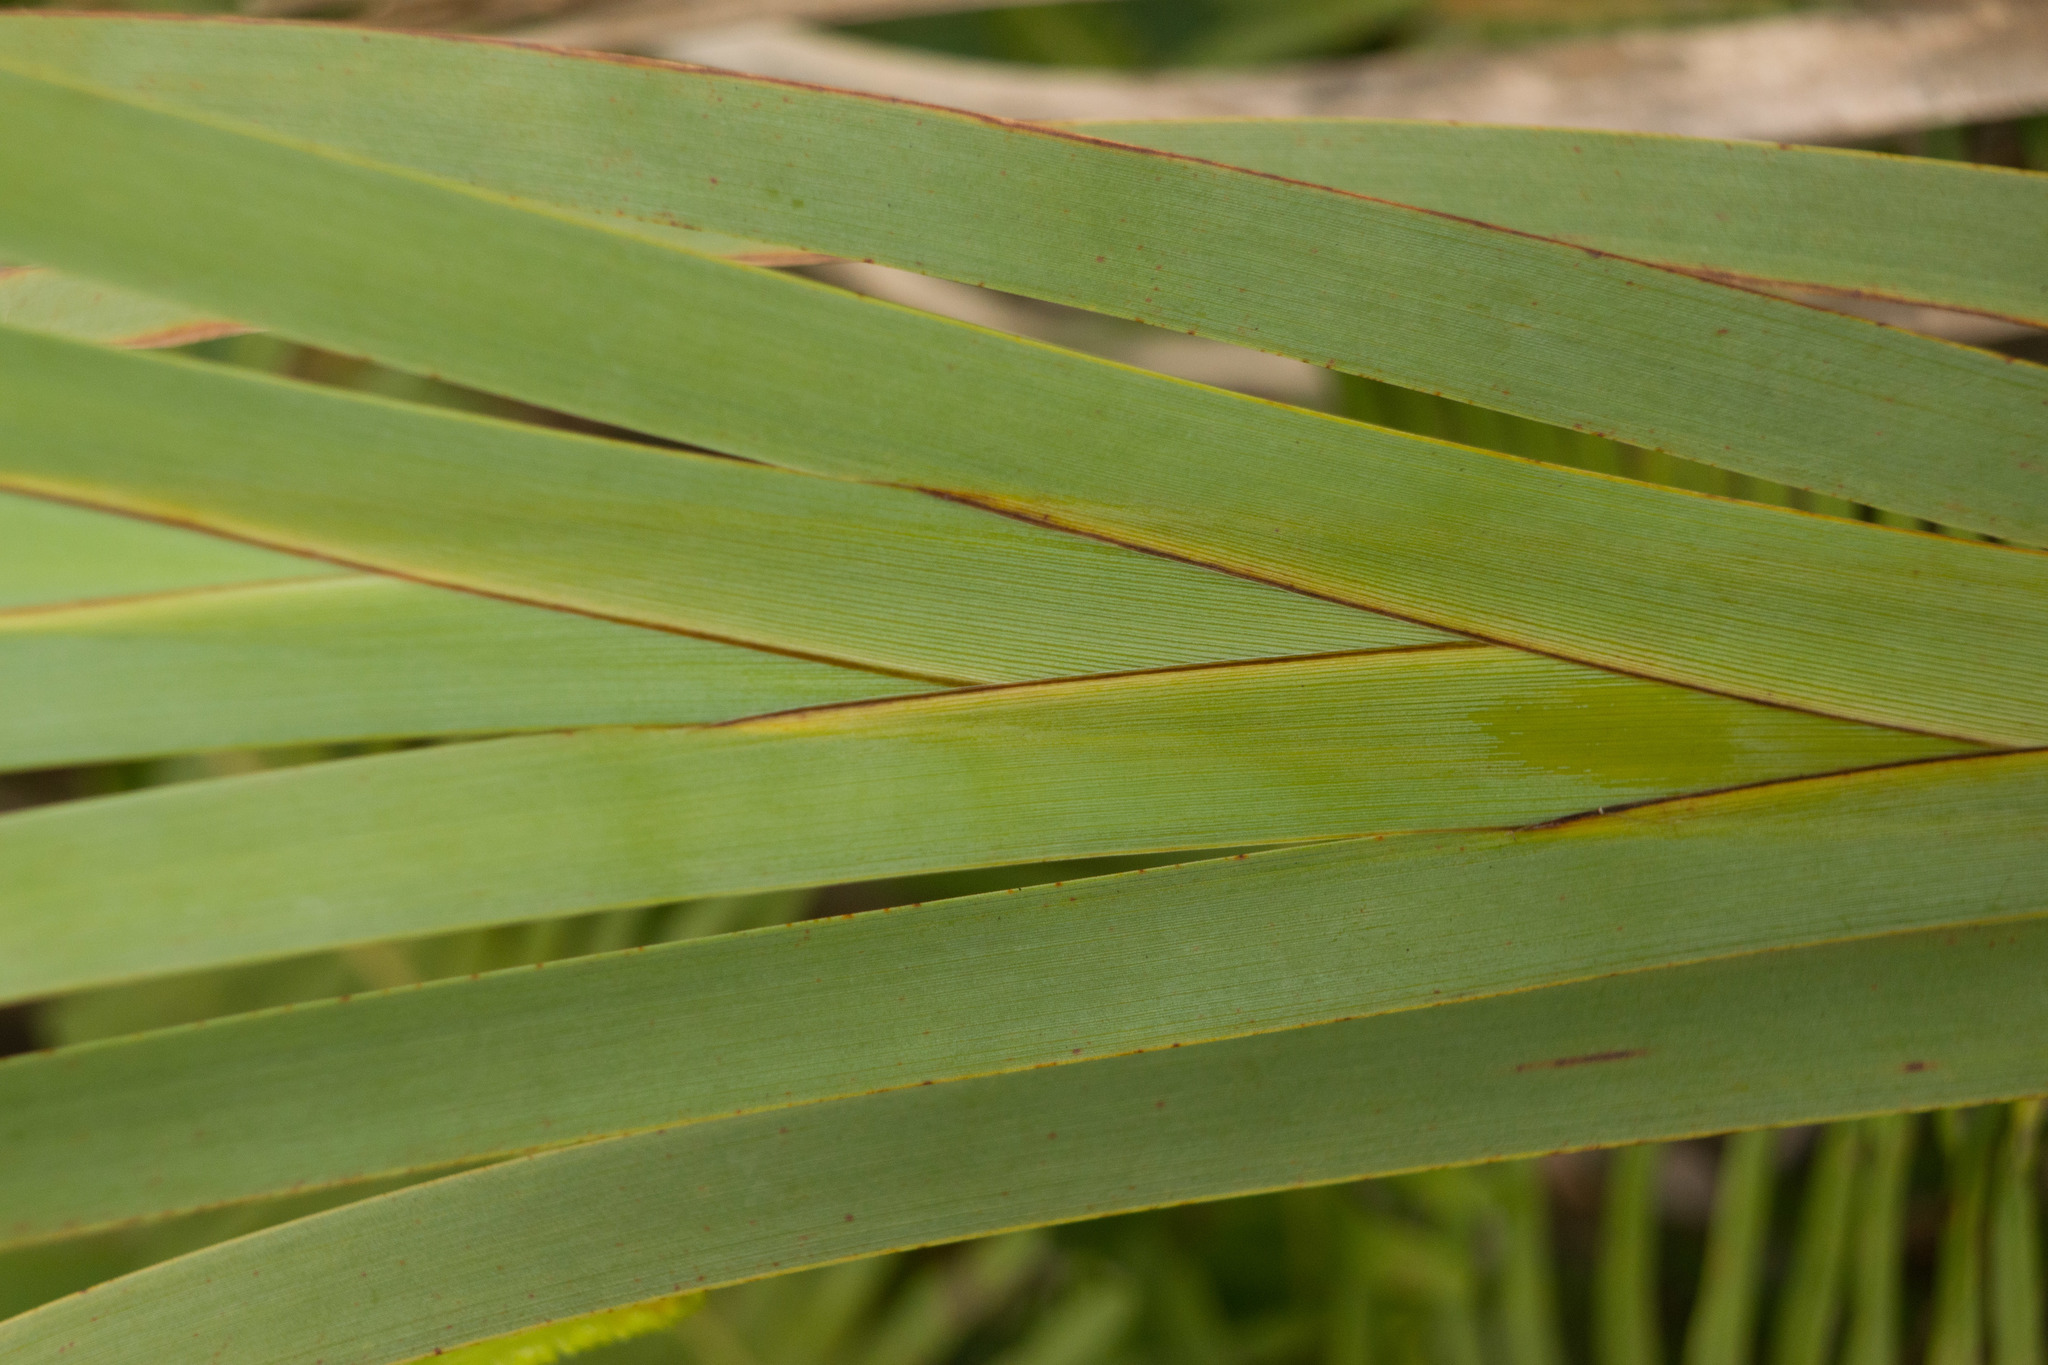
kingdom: Plantae
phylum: Tracheophyta
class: Liliopsida
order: Poales
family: Cyperaceae
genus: Machaerina
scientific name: Machaerina mariscoides
